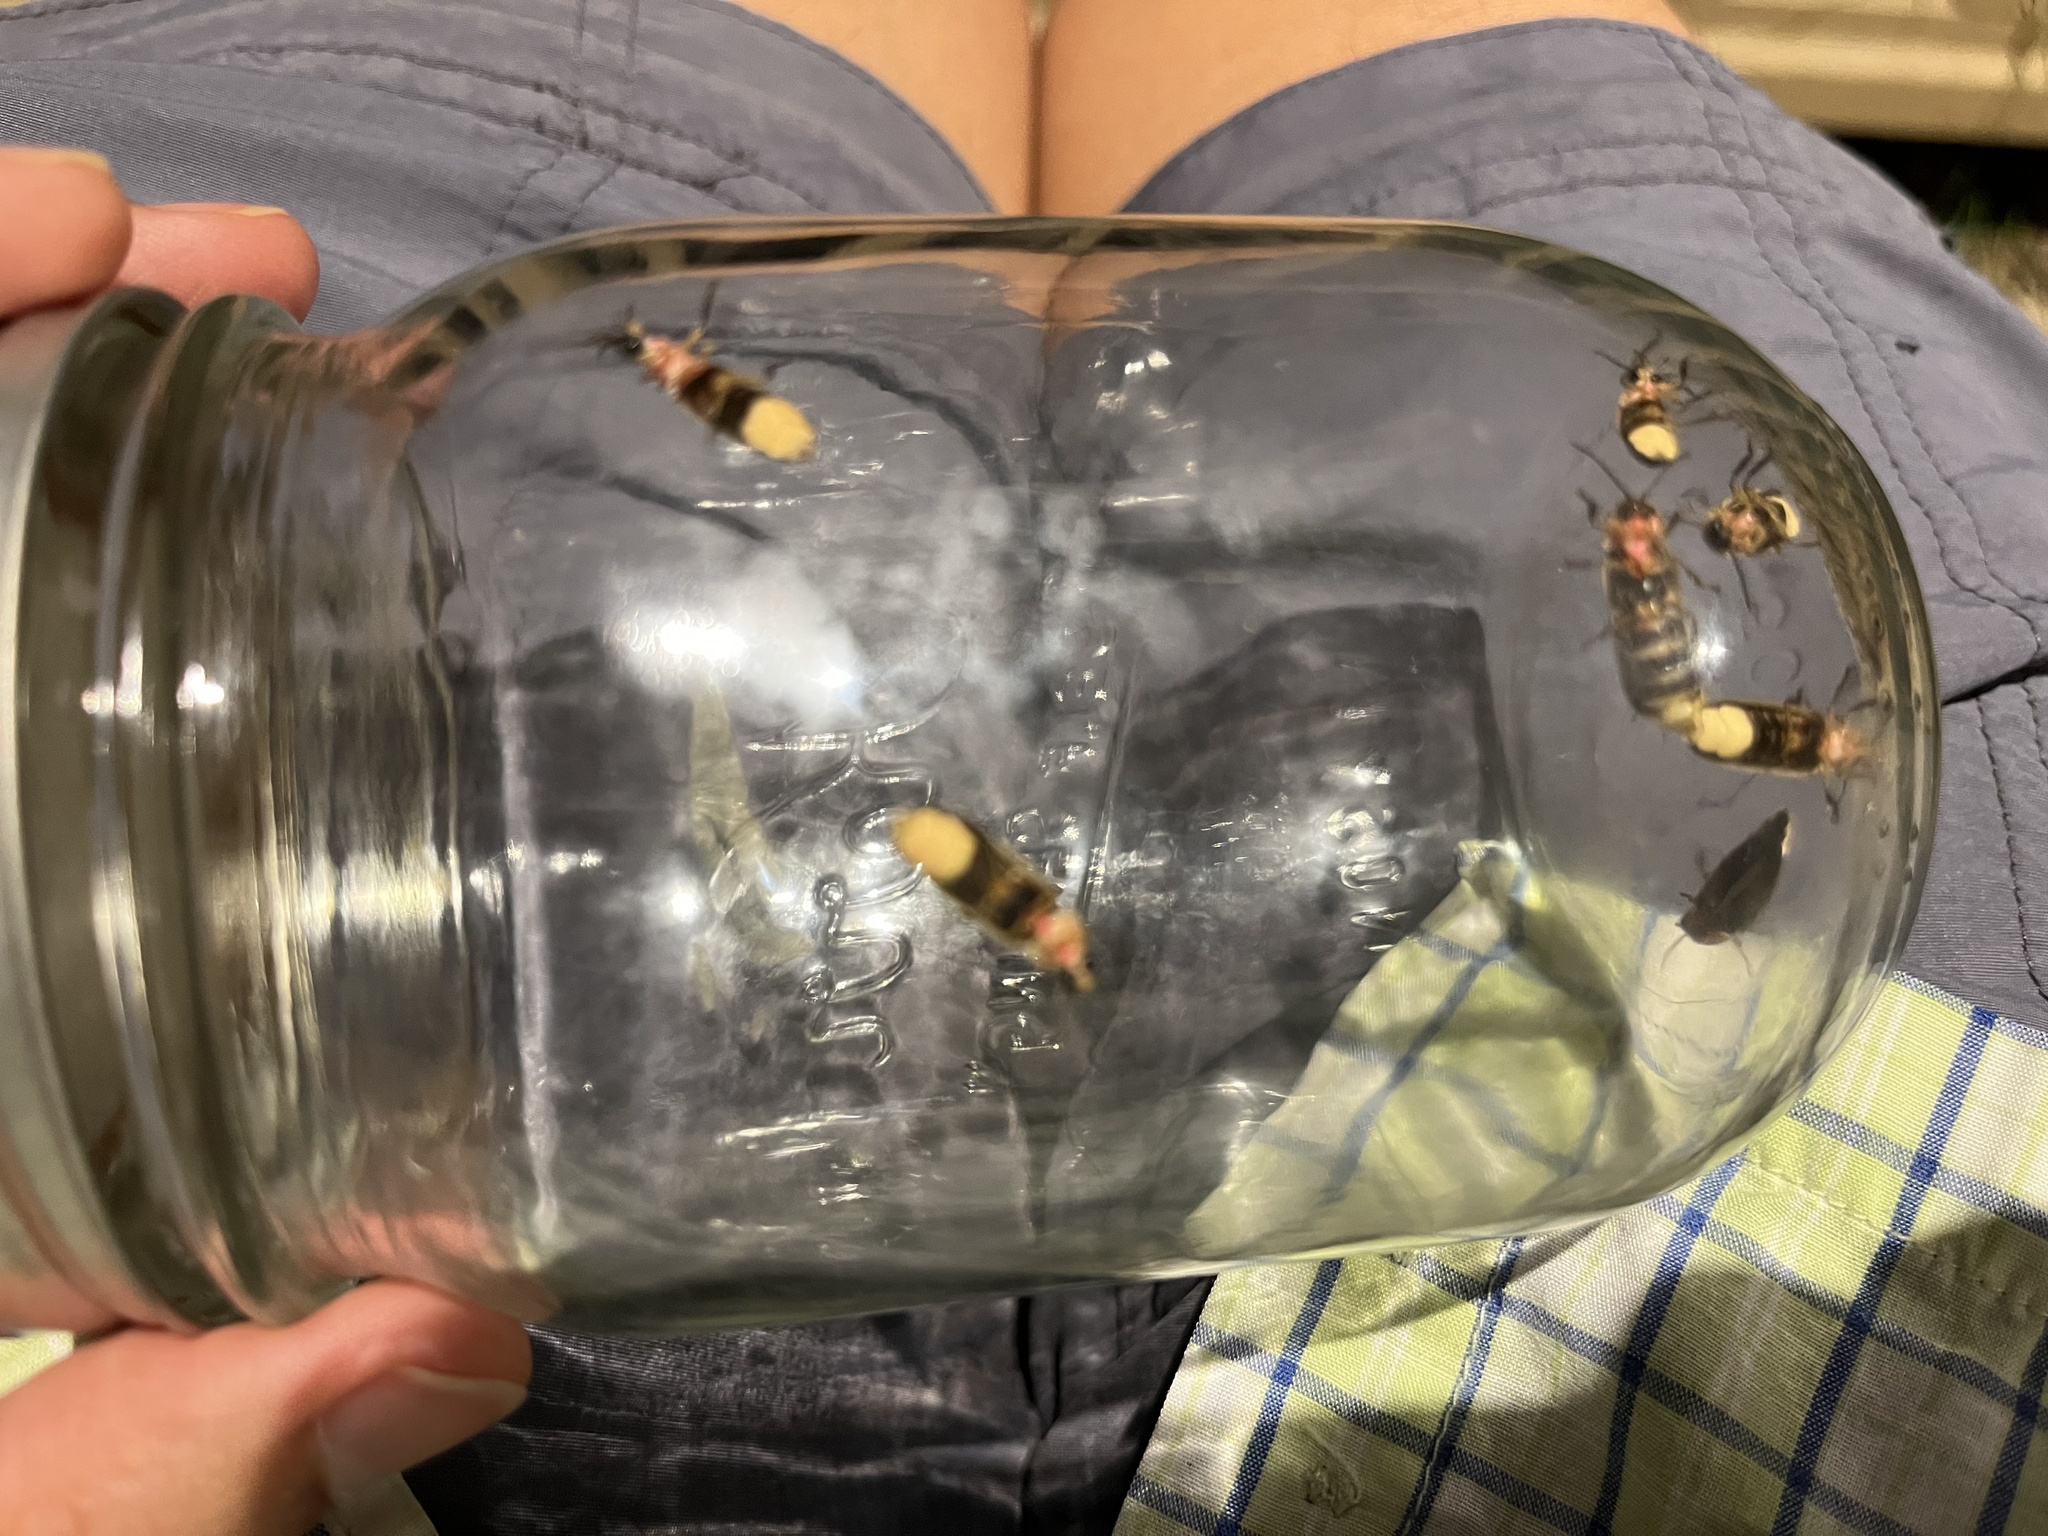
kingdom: Animalia
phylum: Arthropoda
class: Insecta
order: Coleoptera
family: Lampyridae
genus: Photinus
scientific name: Photinus pyralis
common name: Big dipper firefly
